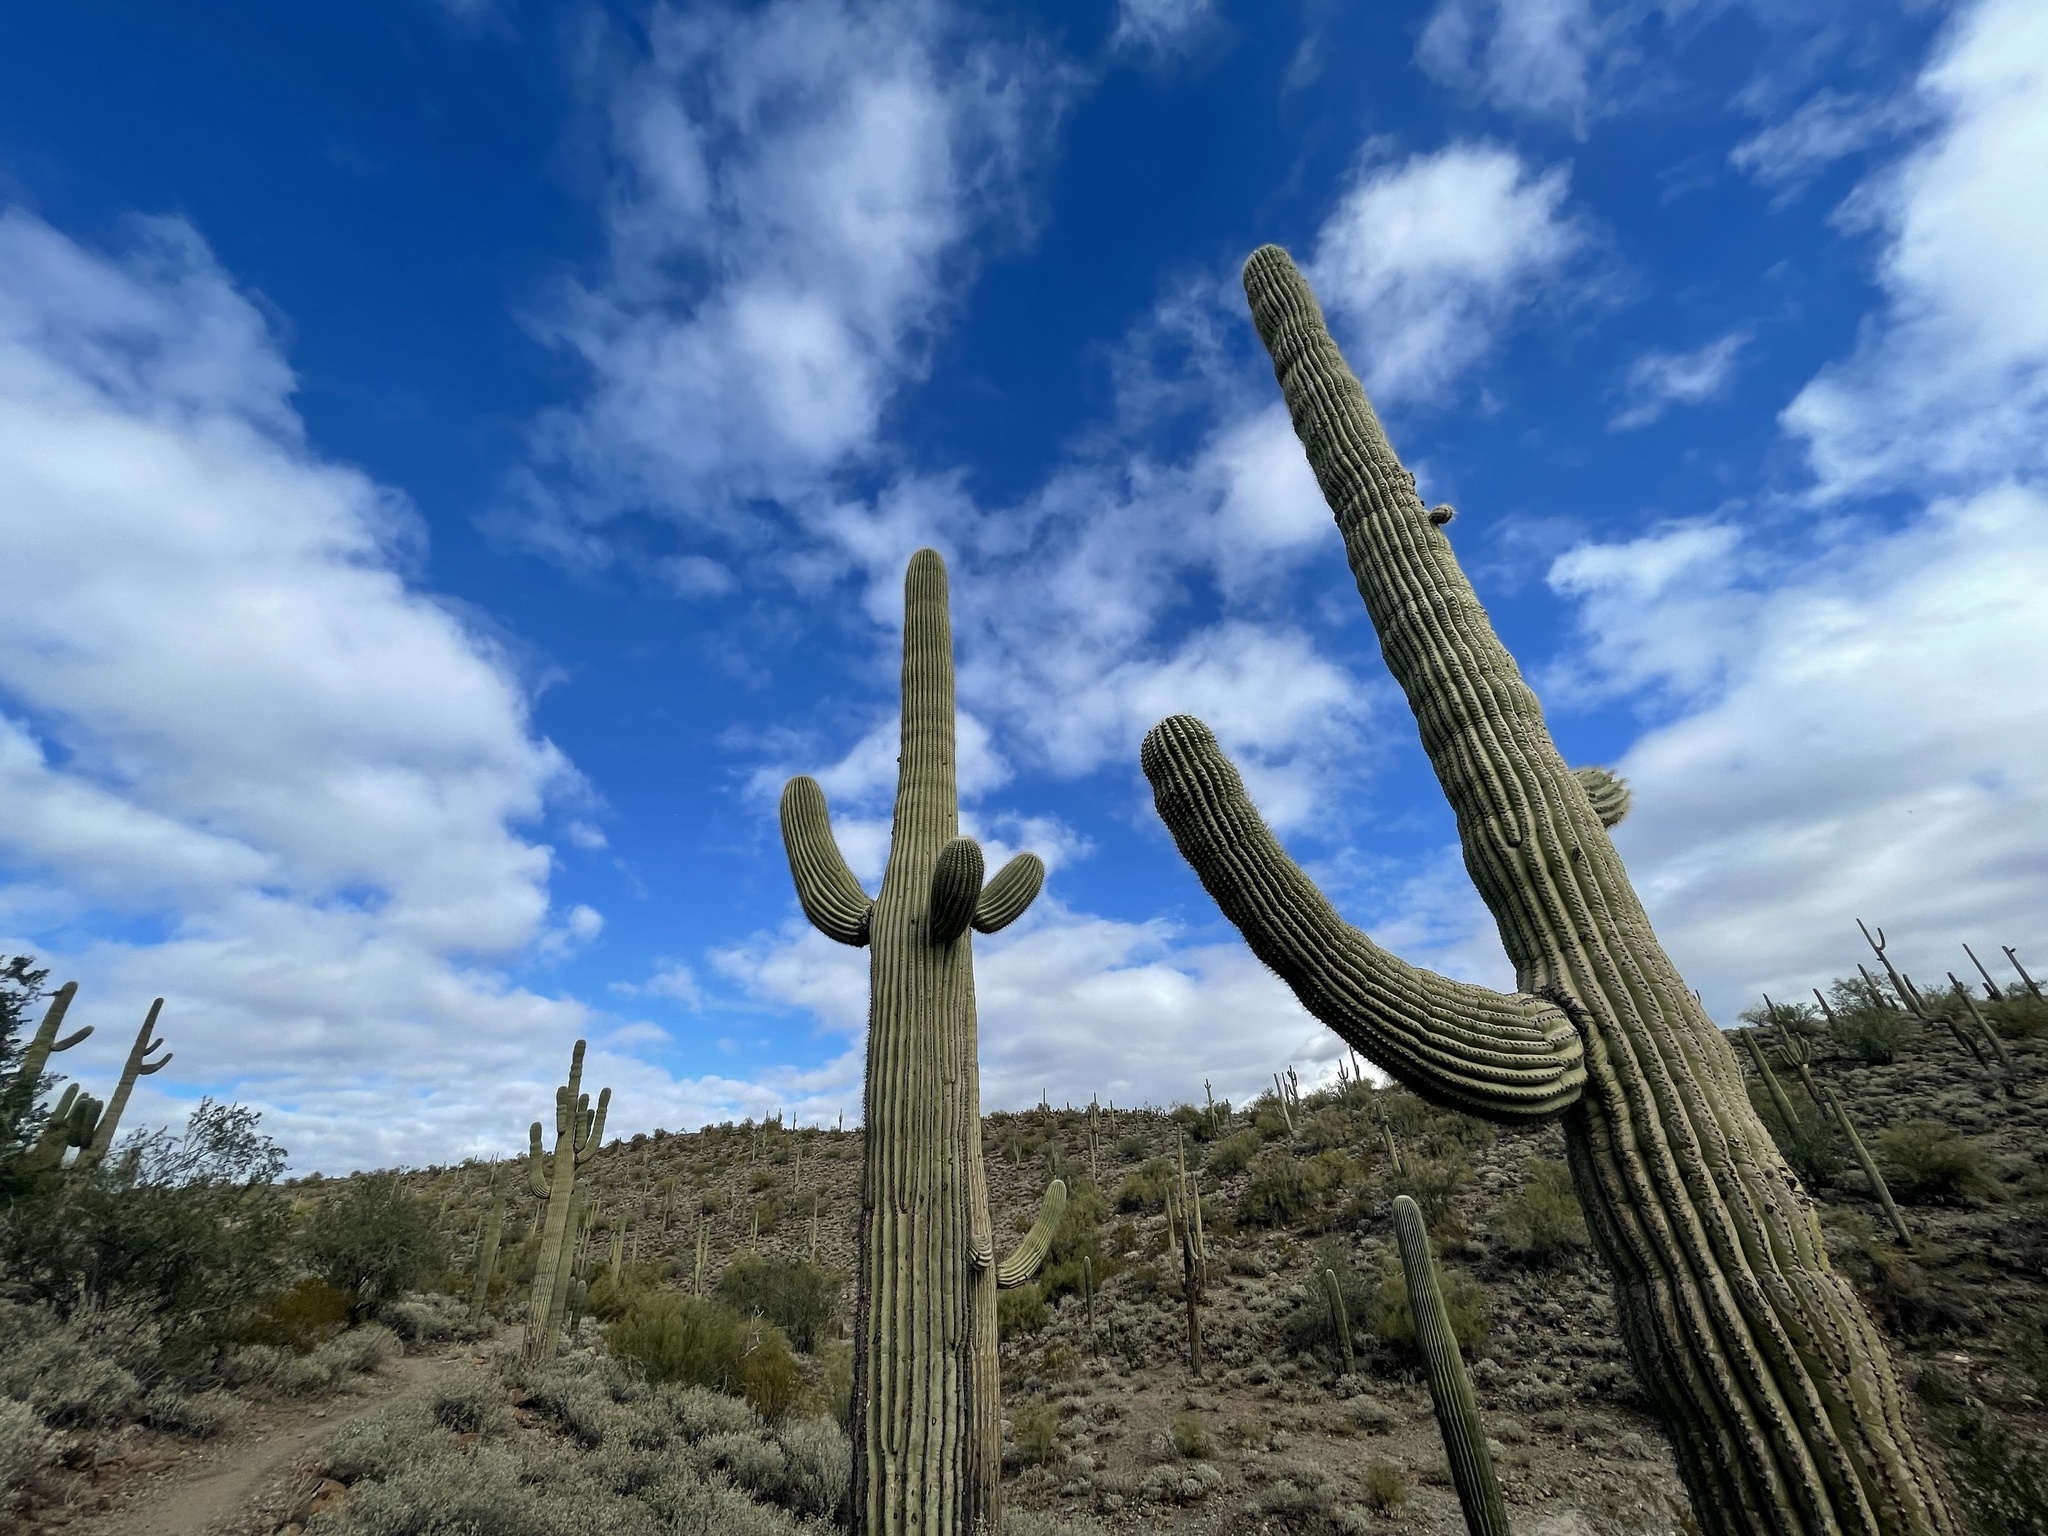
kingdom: Plantae
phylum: Tracheophyta
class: Magnoliopsida
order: Caryophyllales
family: Cactaceae
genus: Carnegiea
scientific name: Carnegiea gigantea
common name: Saguaro
